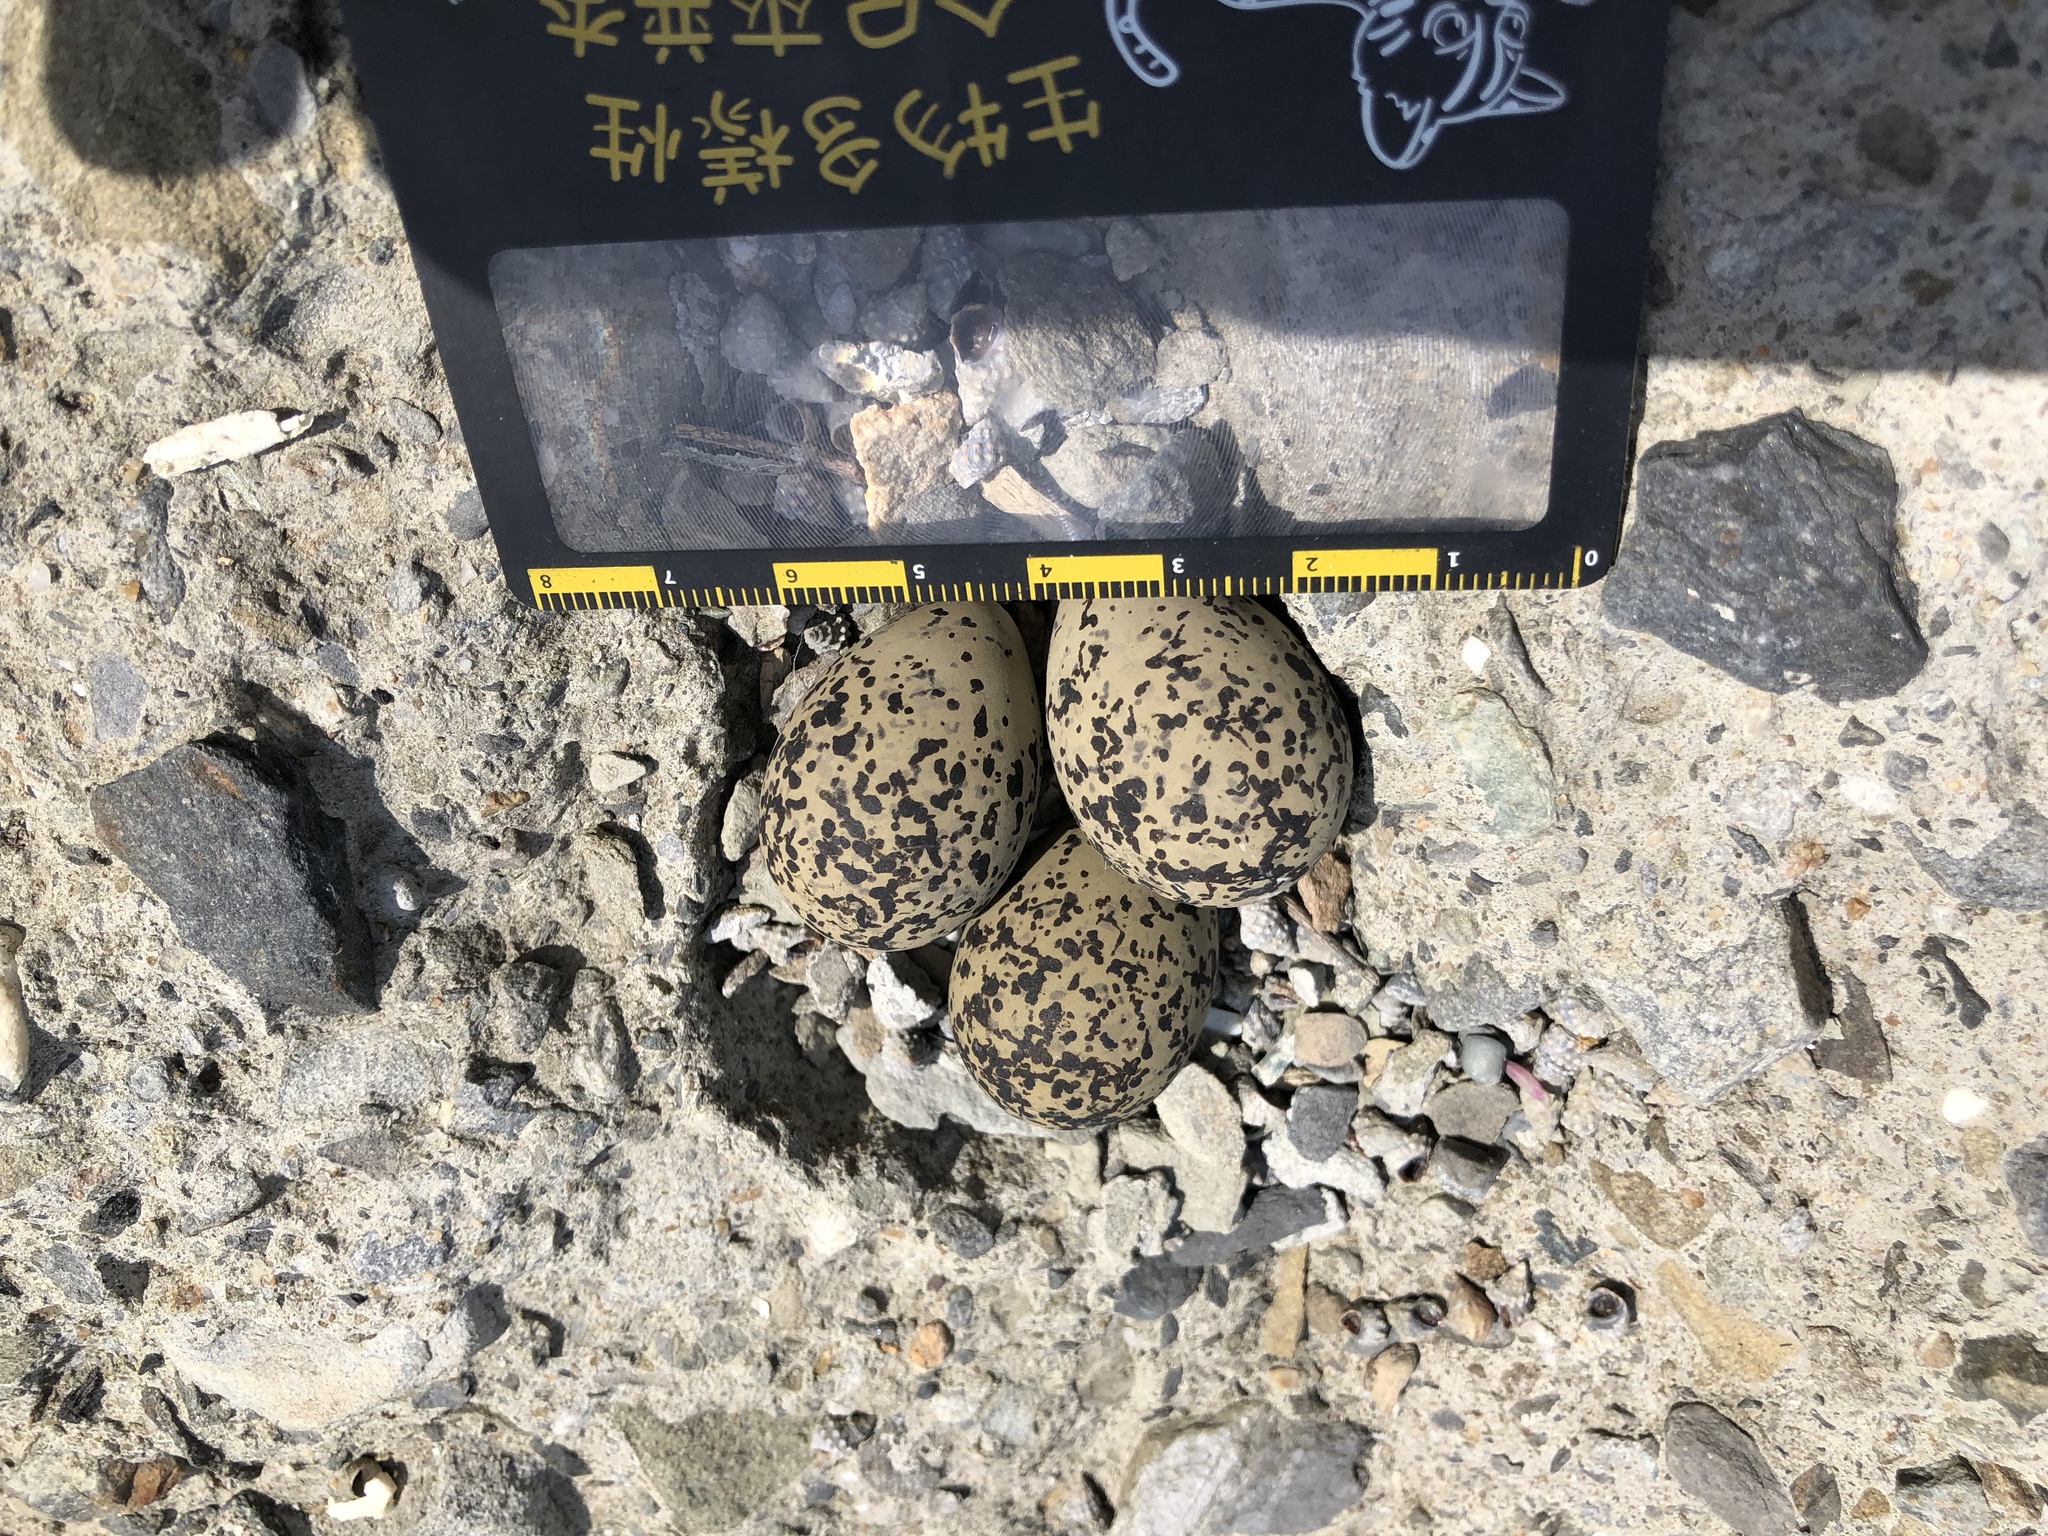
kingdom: Animalia
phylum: Chordata
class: Aves
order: Charadriiformes
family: Charadriidae
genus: Charadrius
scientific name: Charadrius alexandrinus
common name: Kentish plover
